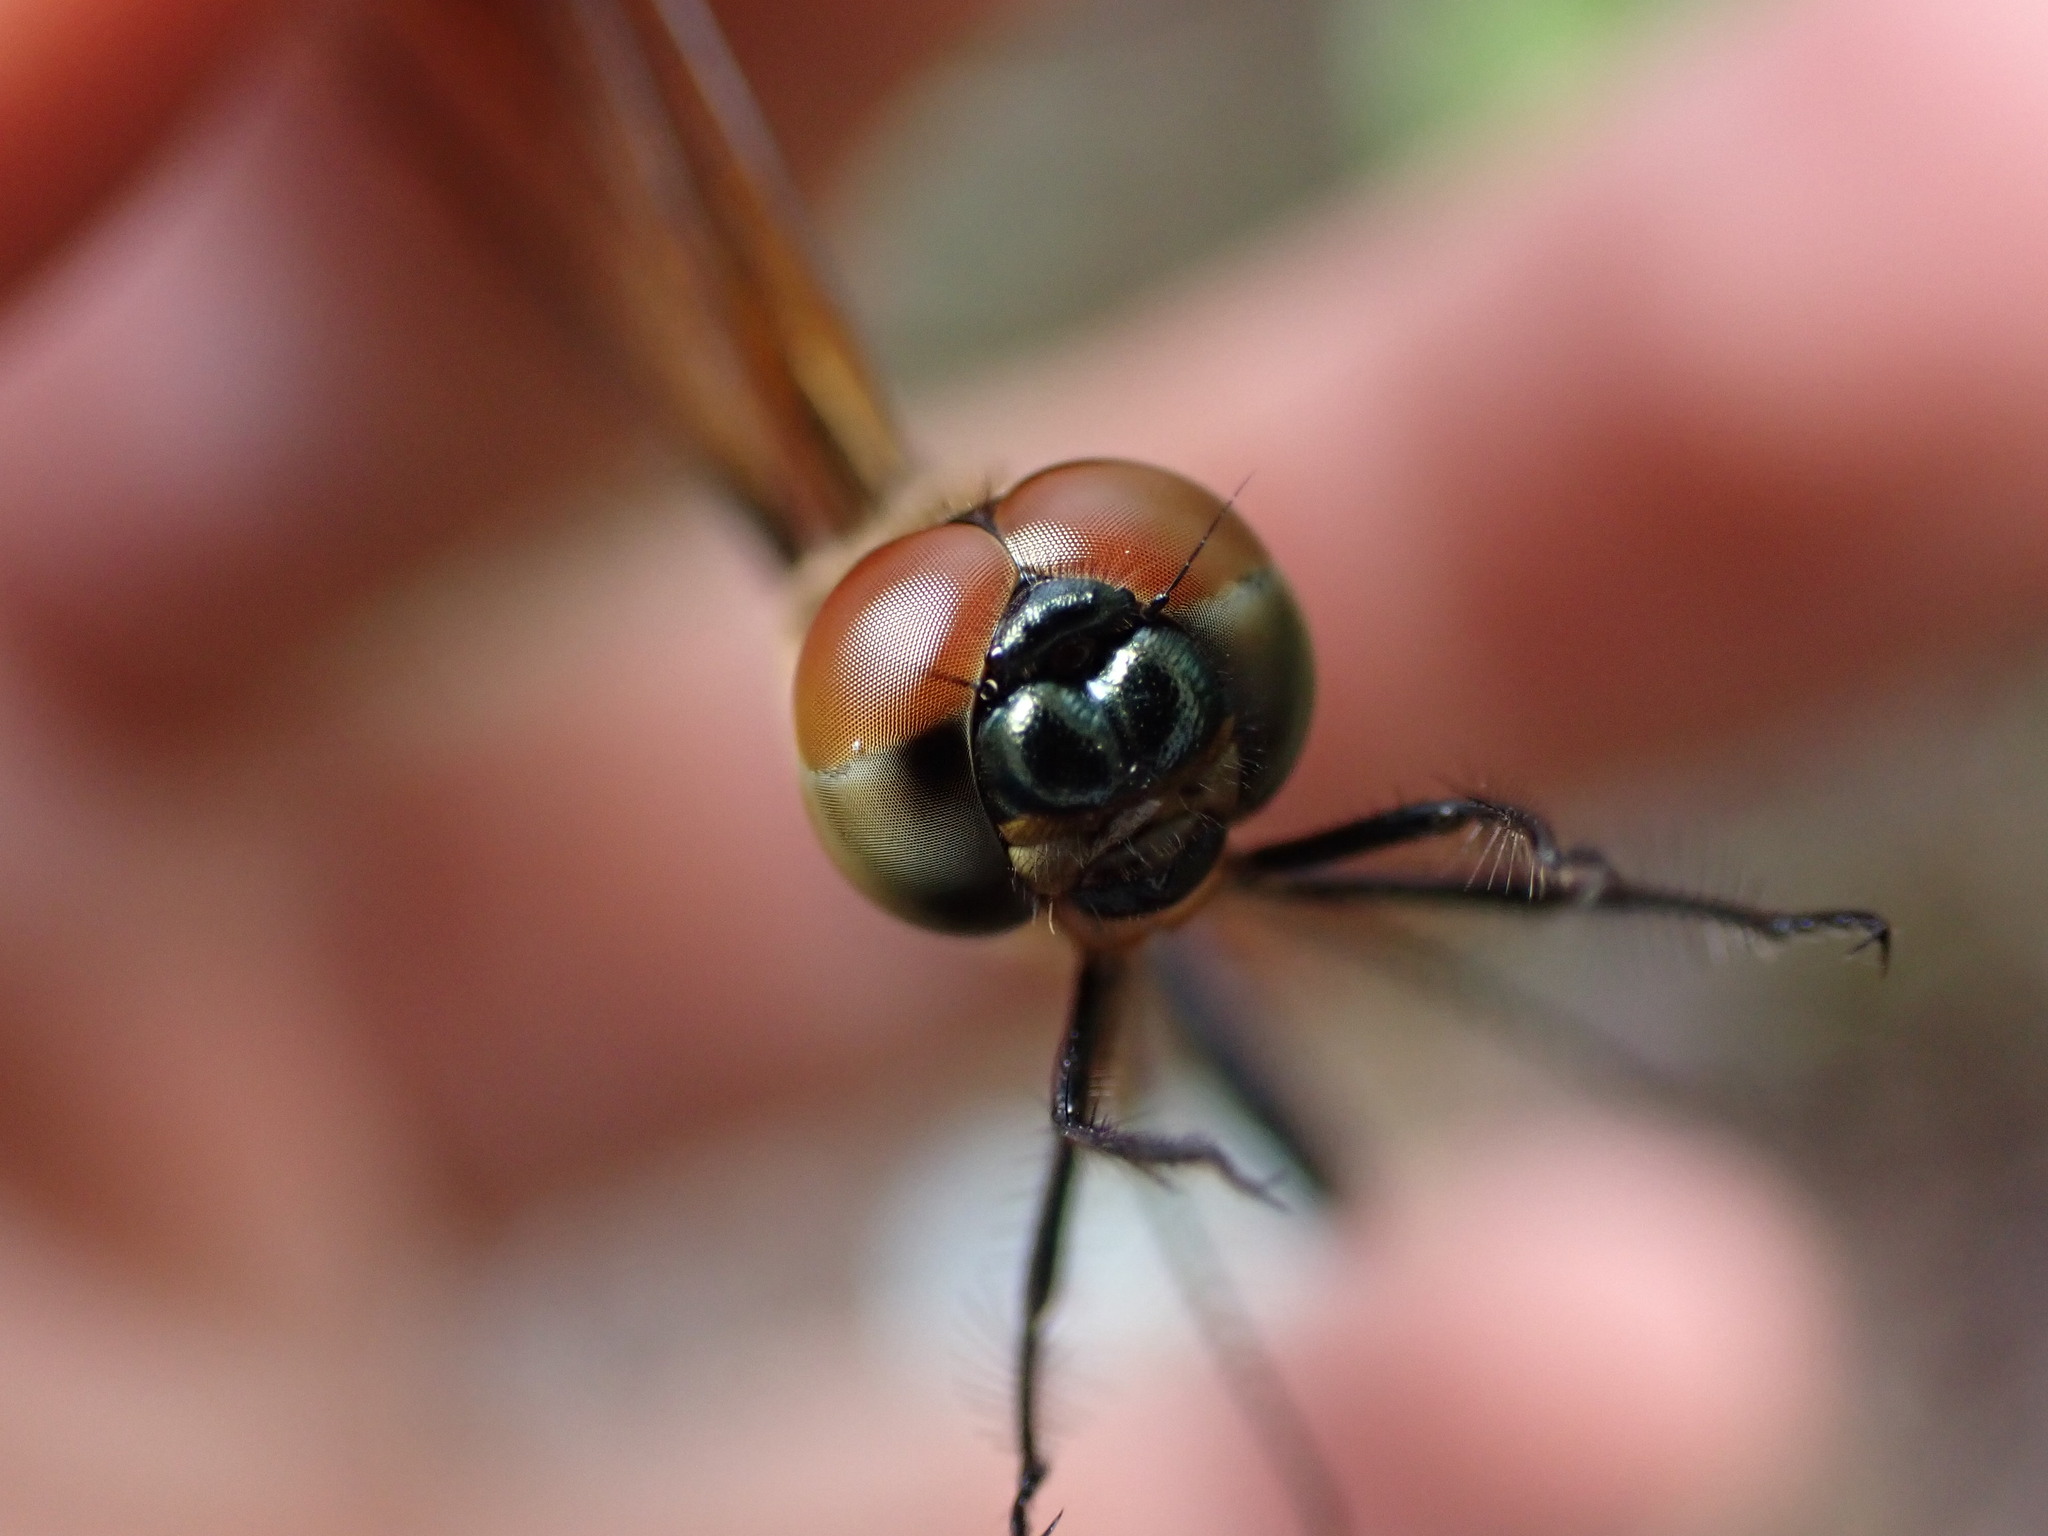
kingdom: Animalia
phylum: Arthropoda
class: Insecta
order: Odonata
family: Libellulidae
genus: Rhyothemis
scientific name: Rhyothemis phyllis
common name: Yellow-barred flutterer
